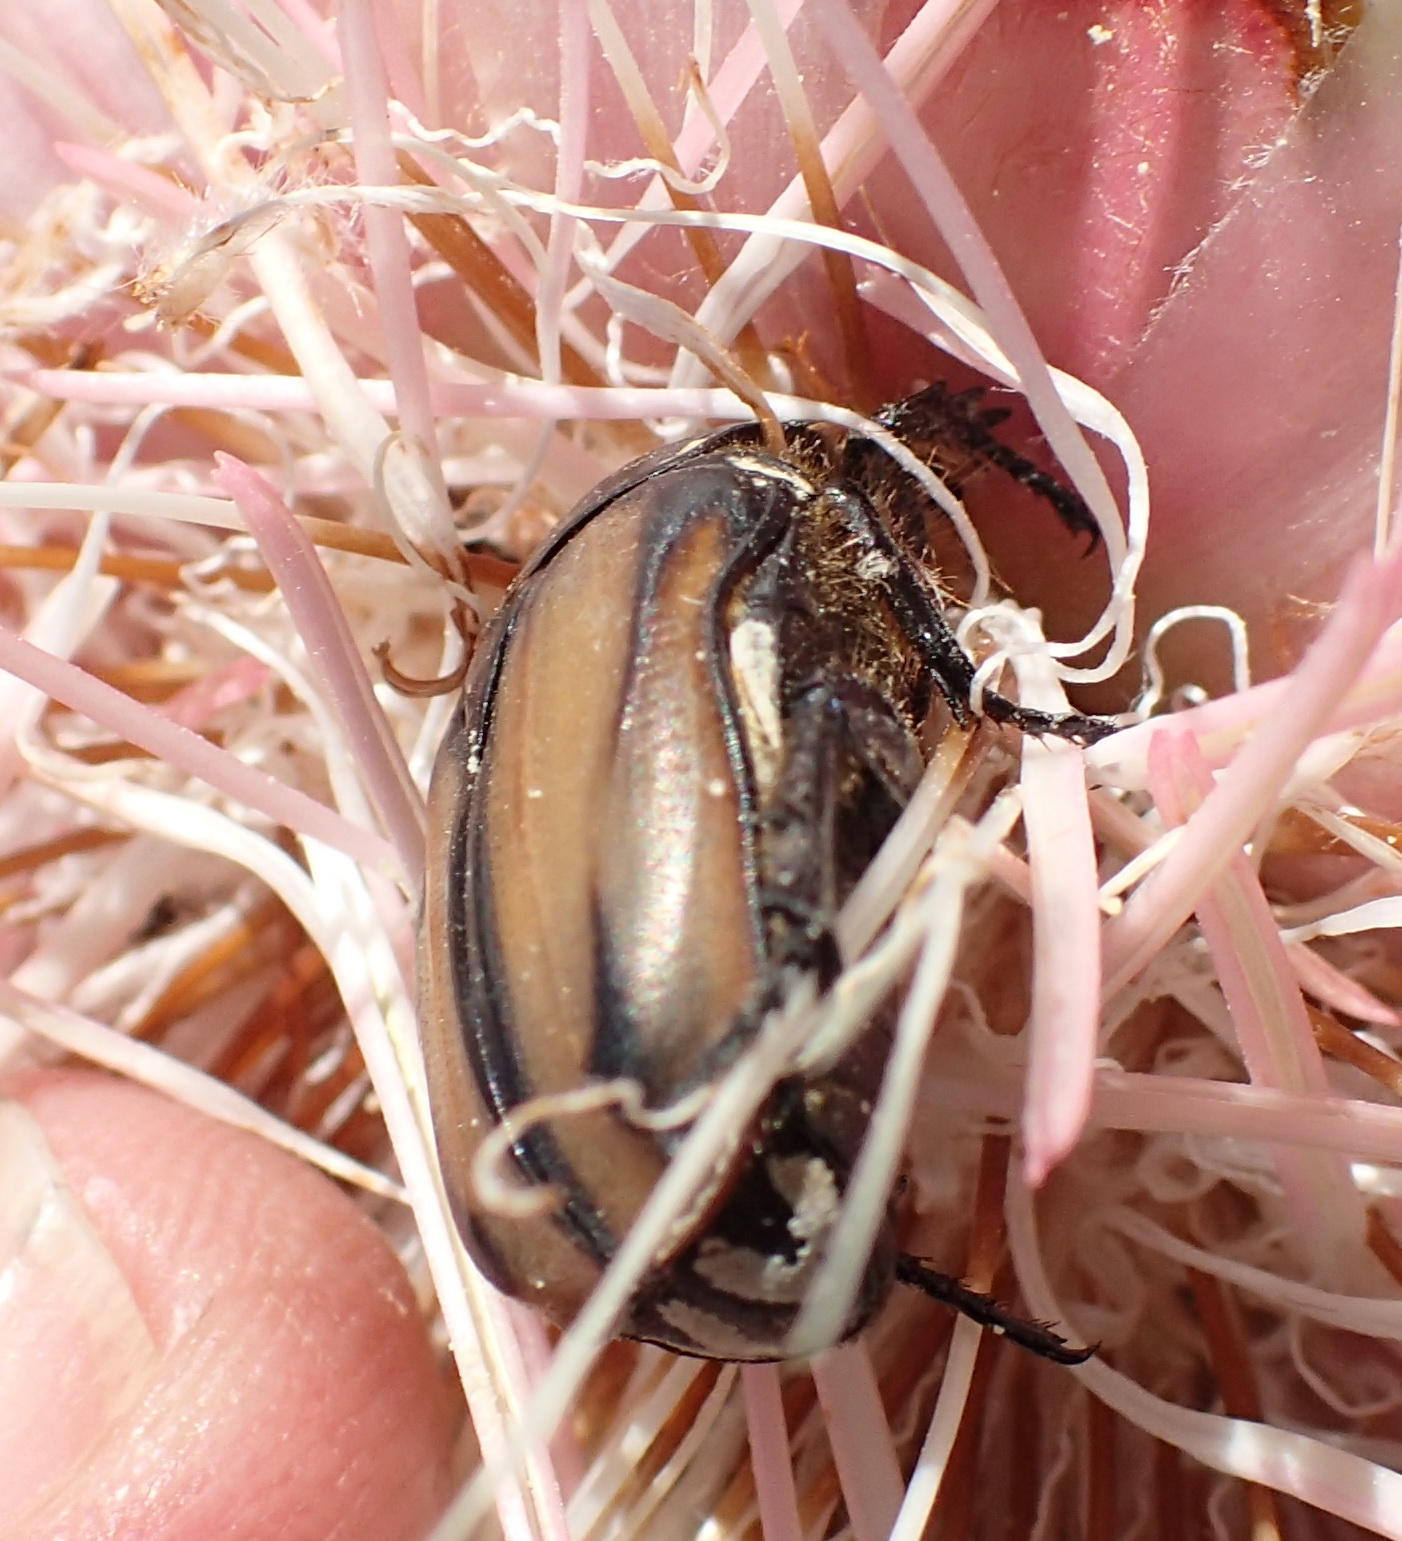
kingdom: Animalia
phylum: Arthropoda
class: Insecta
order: Coleoptera
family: Scarabaeidae
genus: Trichostetha
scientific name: Trichostetha signata
